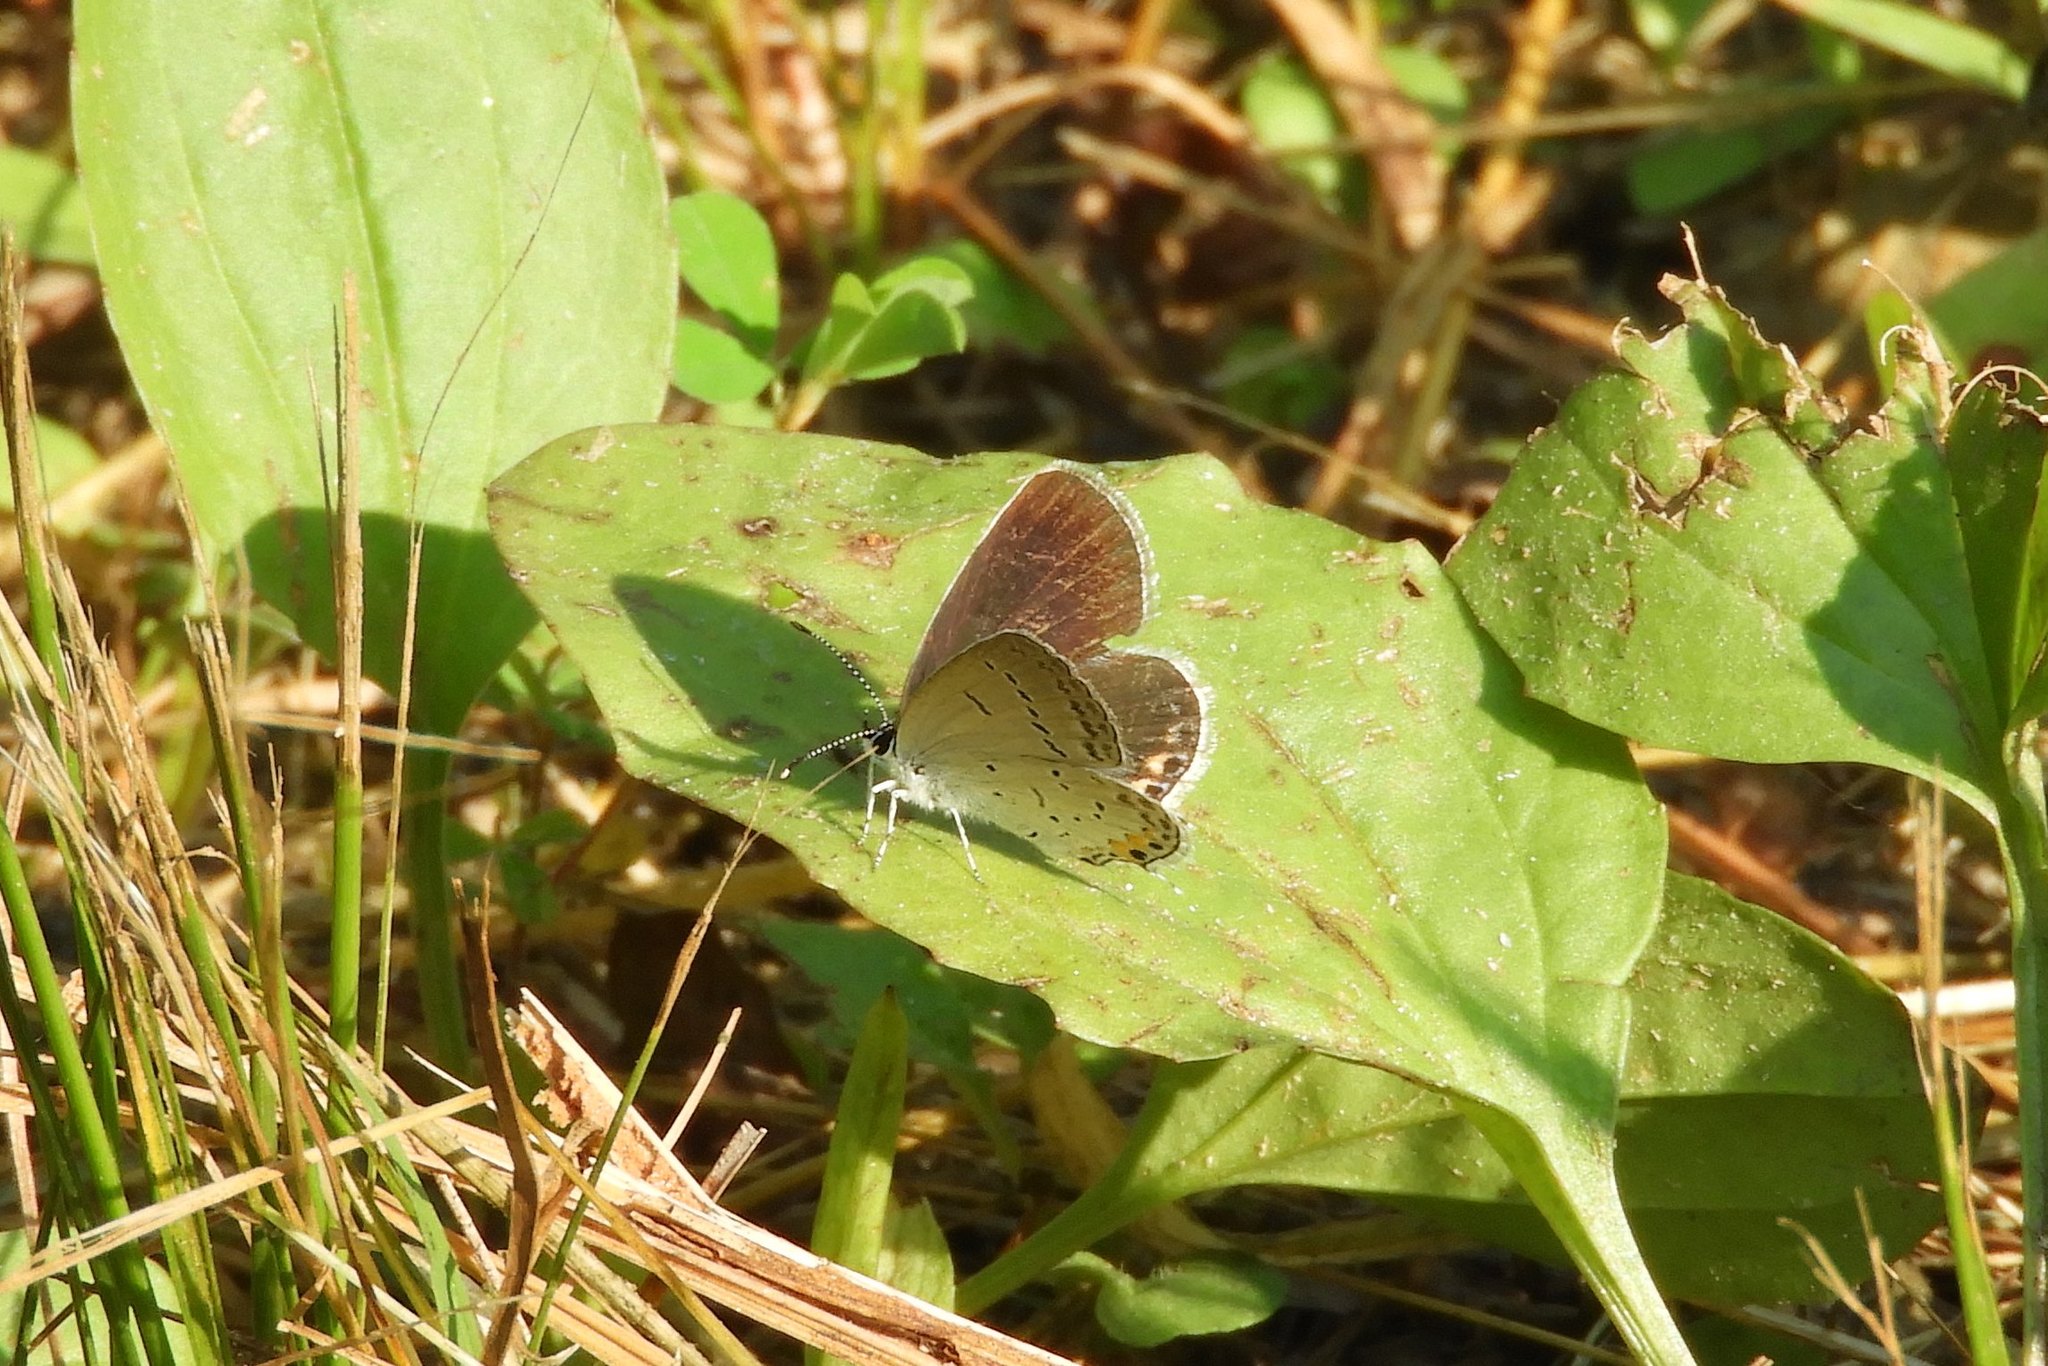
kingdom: Animalia
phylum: Arthropoda
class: Insecta
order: Lepidoptera
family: Lycaenidae
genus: Elkalyce
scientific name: Elkalyce comyntas
